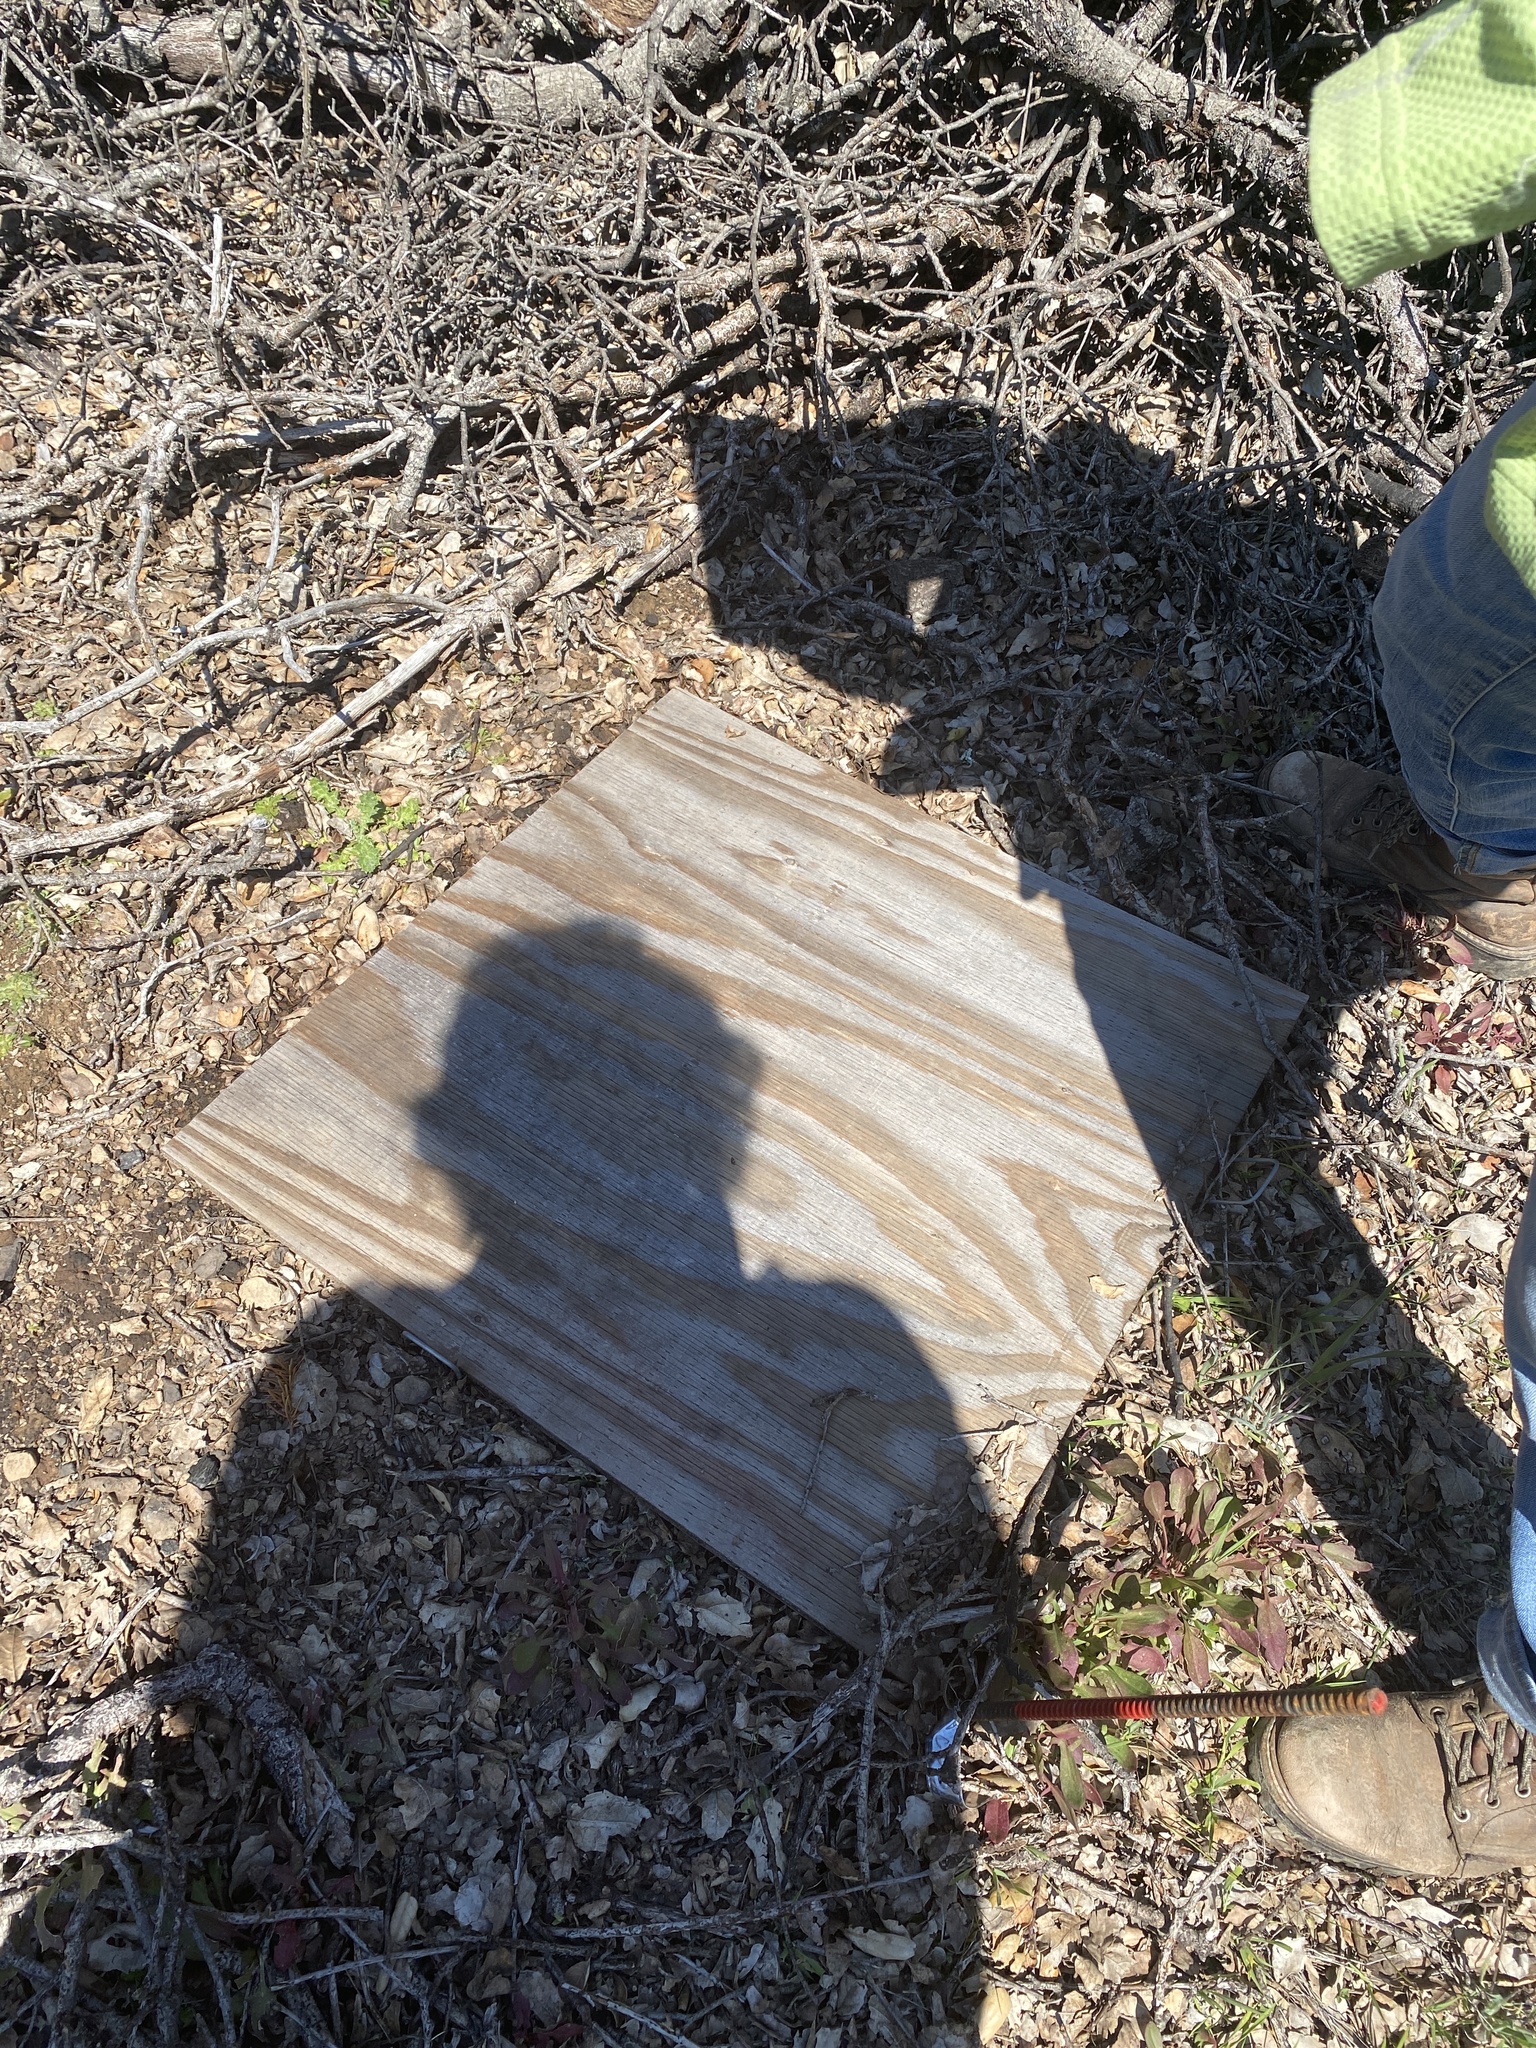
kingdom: Animalia
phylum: Chordata
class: Squamata
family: Scincidae
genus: Plestiodon
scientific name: Plestiodon skiltonianus
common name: Coronado island skink [interparietalis]
